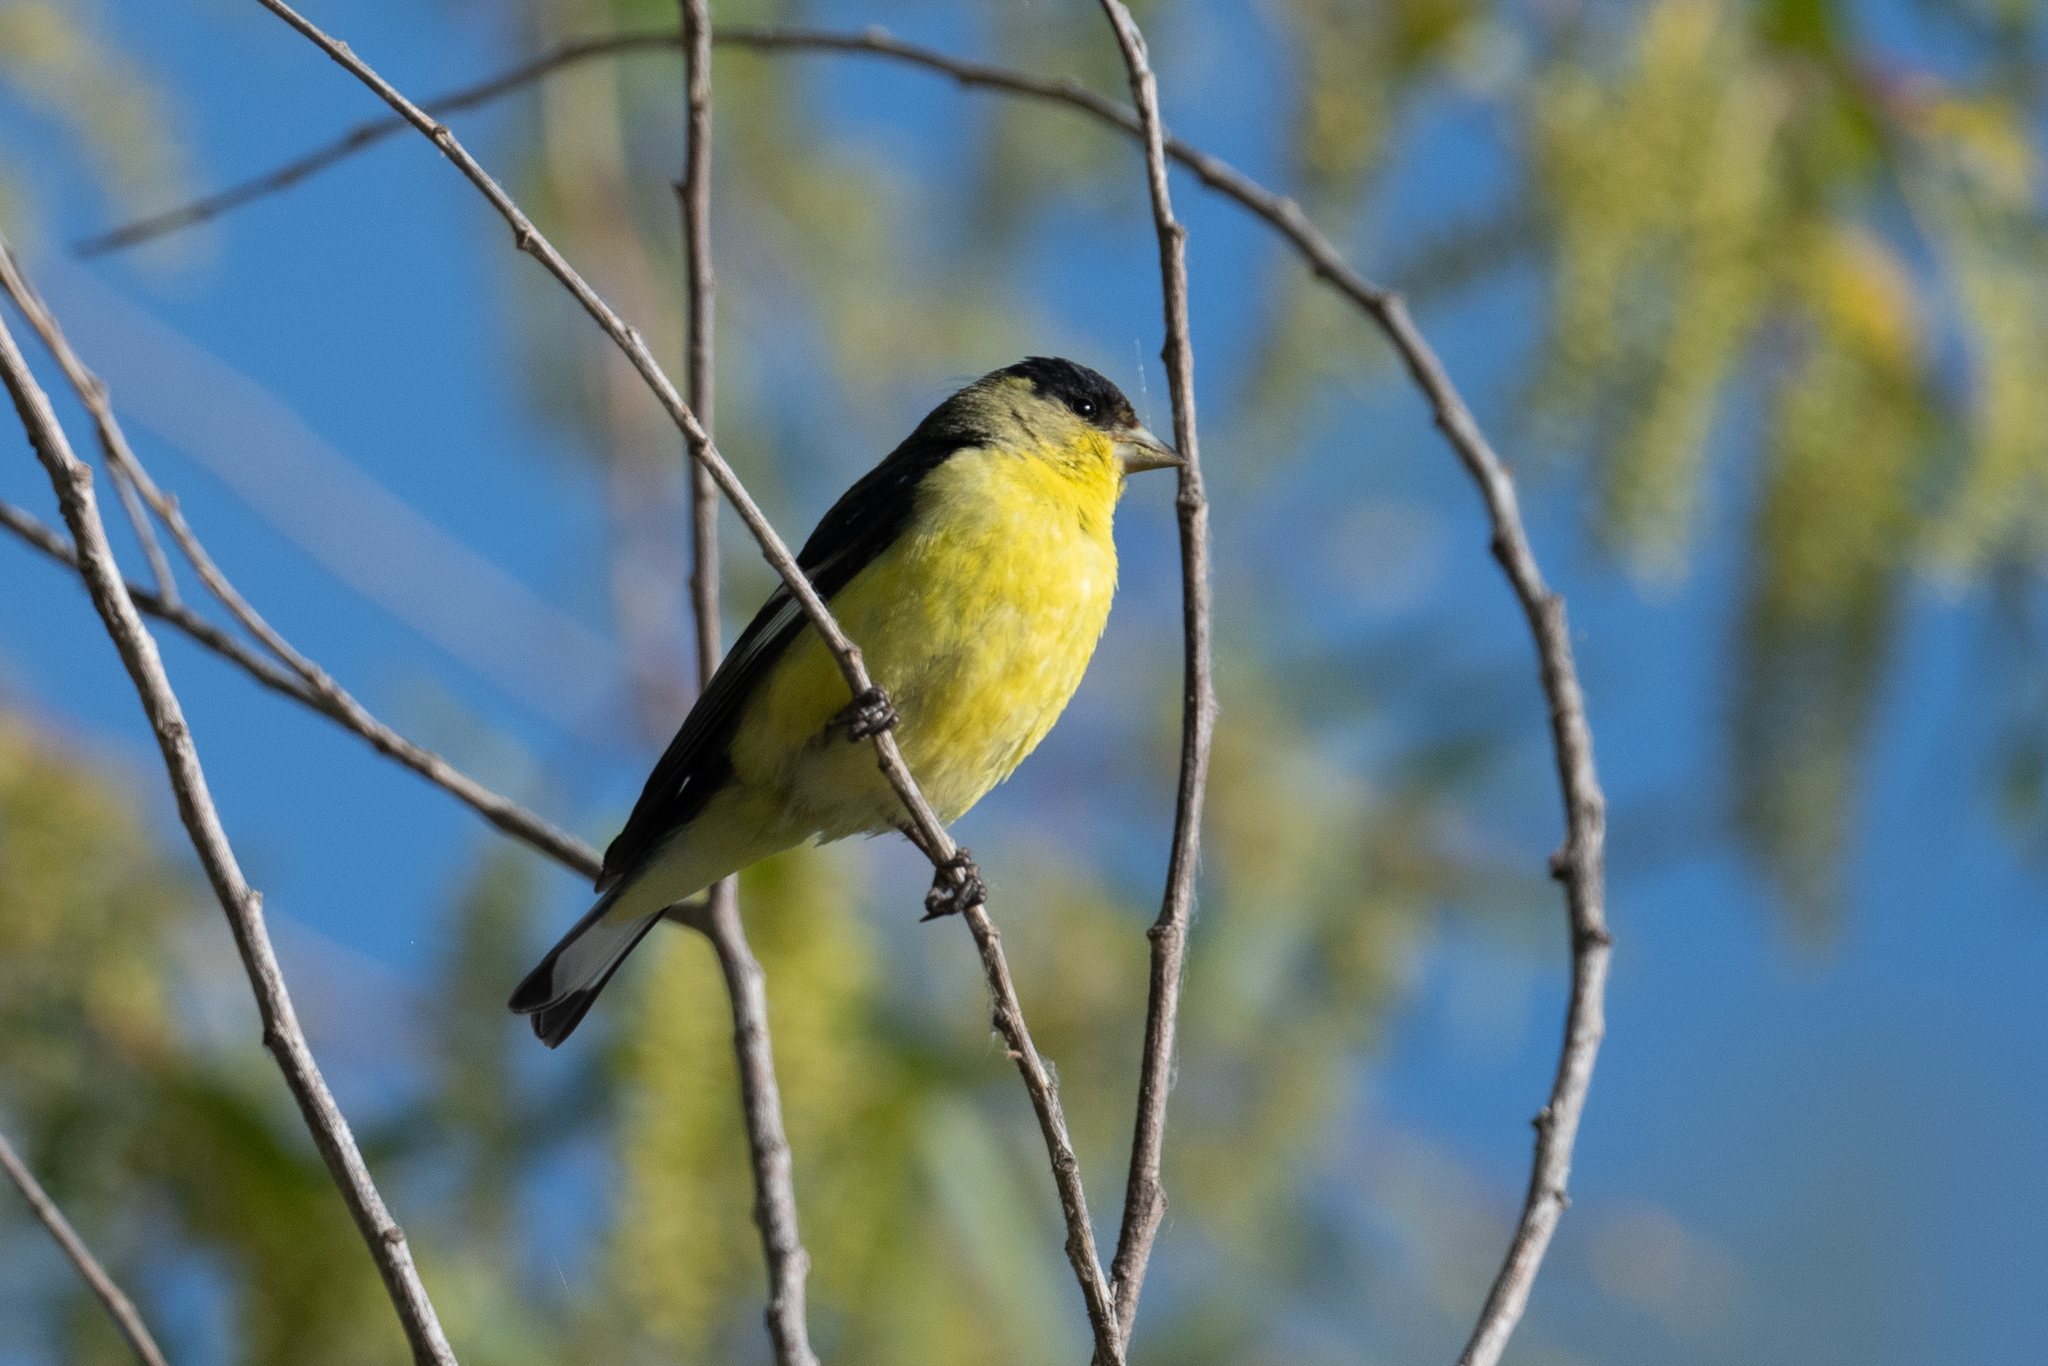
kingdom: Animalia
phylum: Chordata
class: Aves
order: Passeriformes
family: Fringillidae
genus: Spinus
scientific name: Spinus psaltria
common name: Lesser goldfinch
